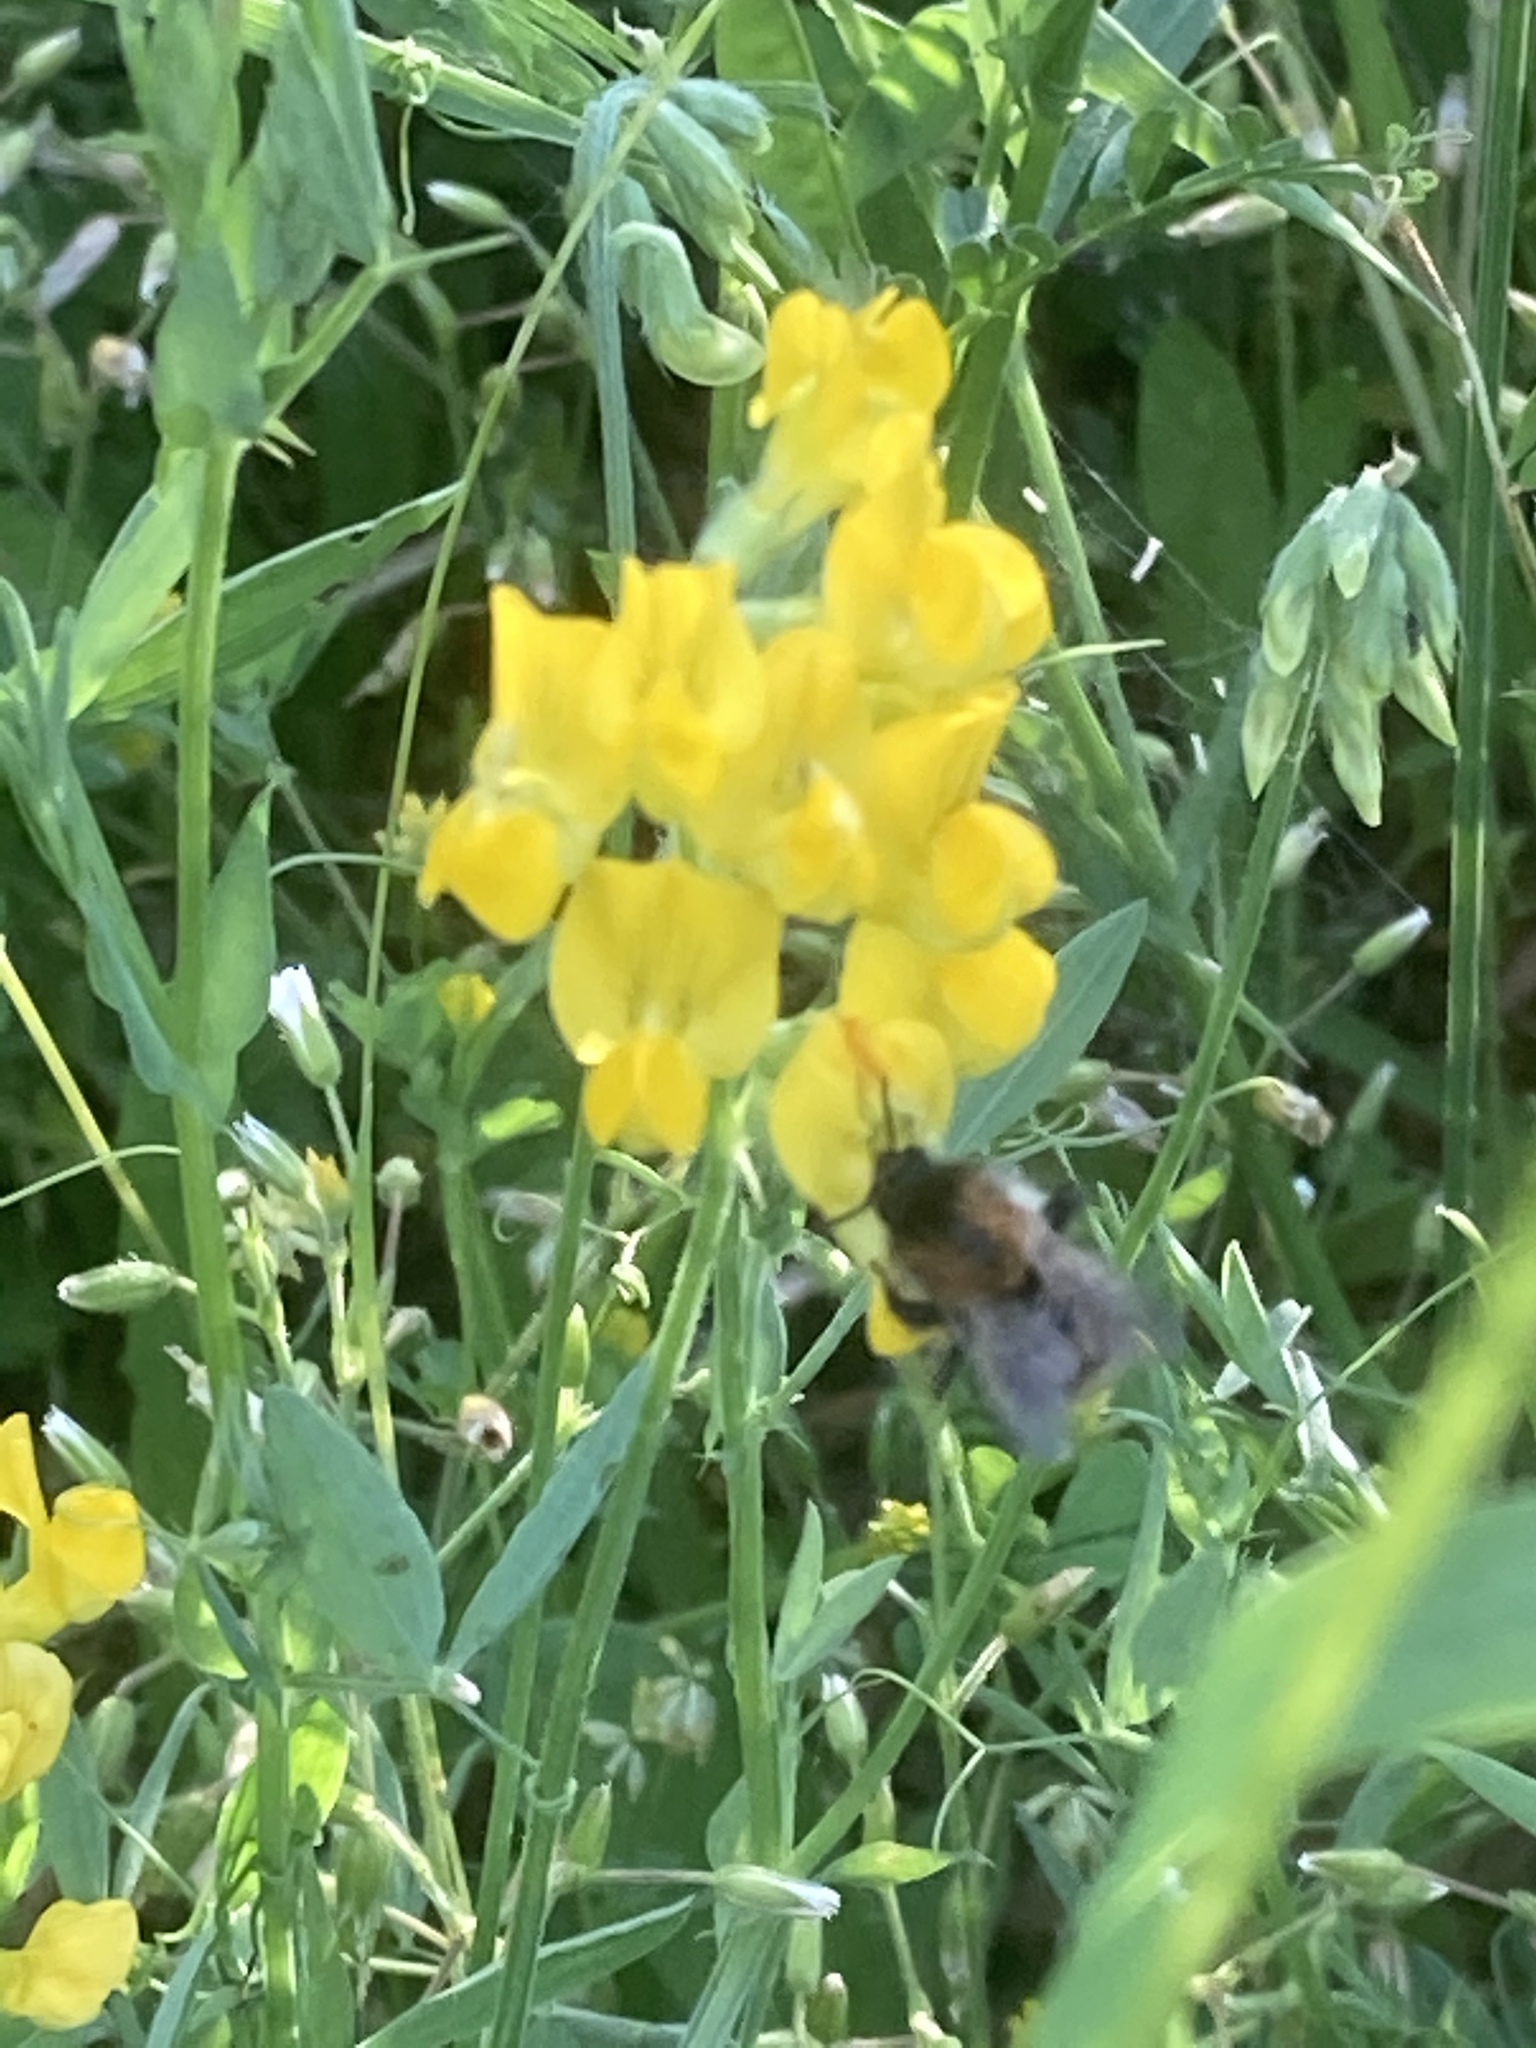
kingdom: Plantae
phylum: Tracheophyta
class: Magnoliopsida
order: Fabales
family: Fabaceae
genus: Lathyrus
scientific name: Lathyrus pratensis
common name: Meadow vetchling
